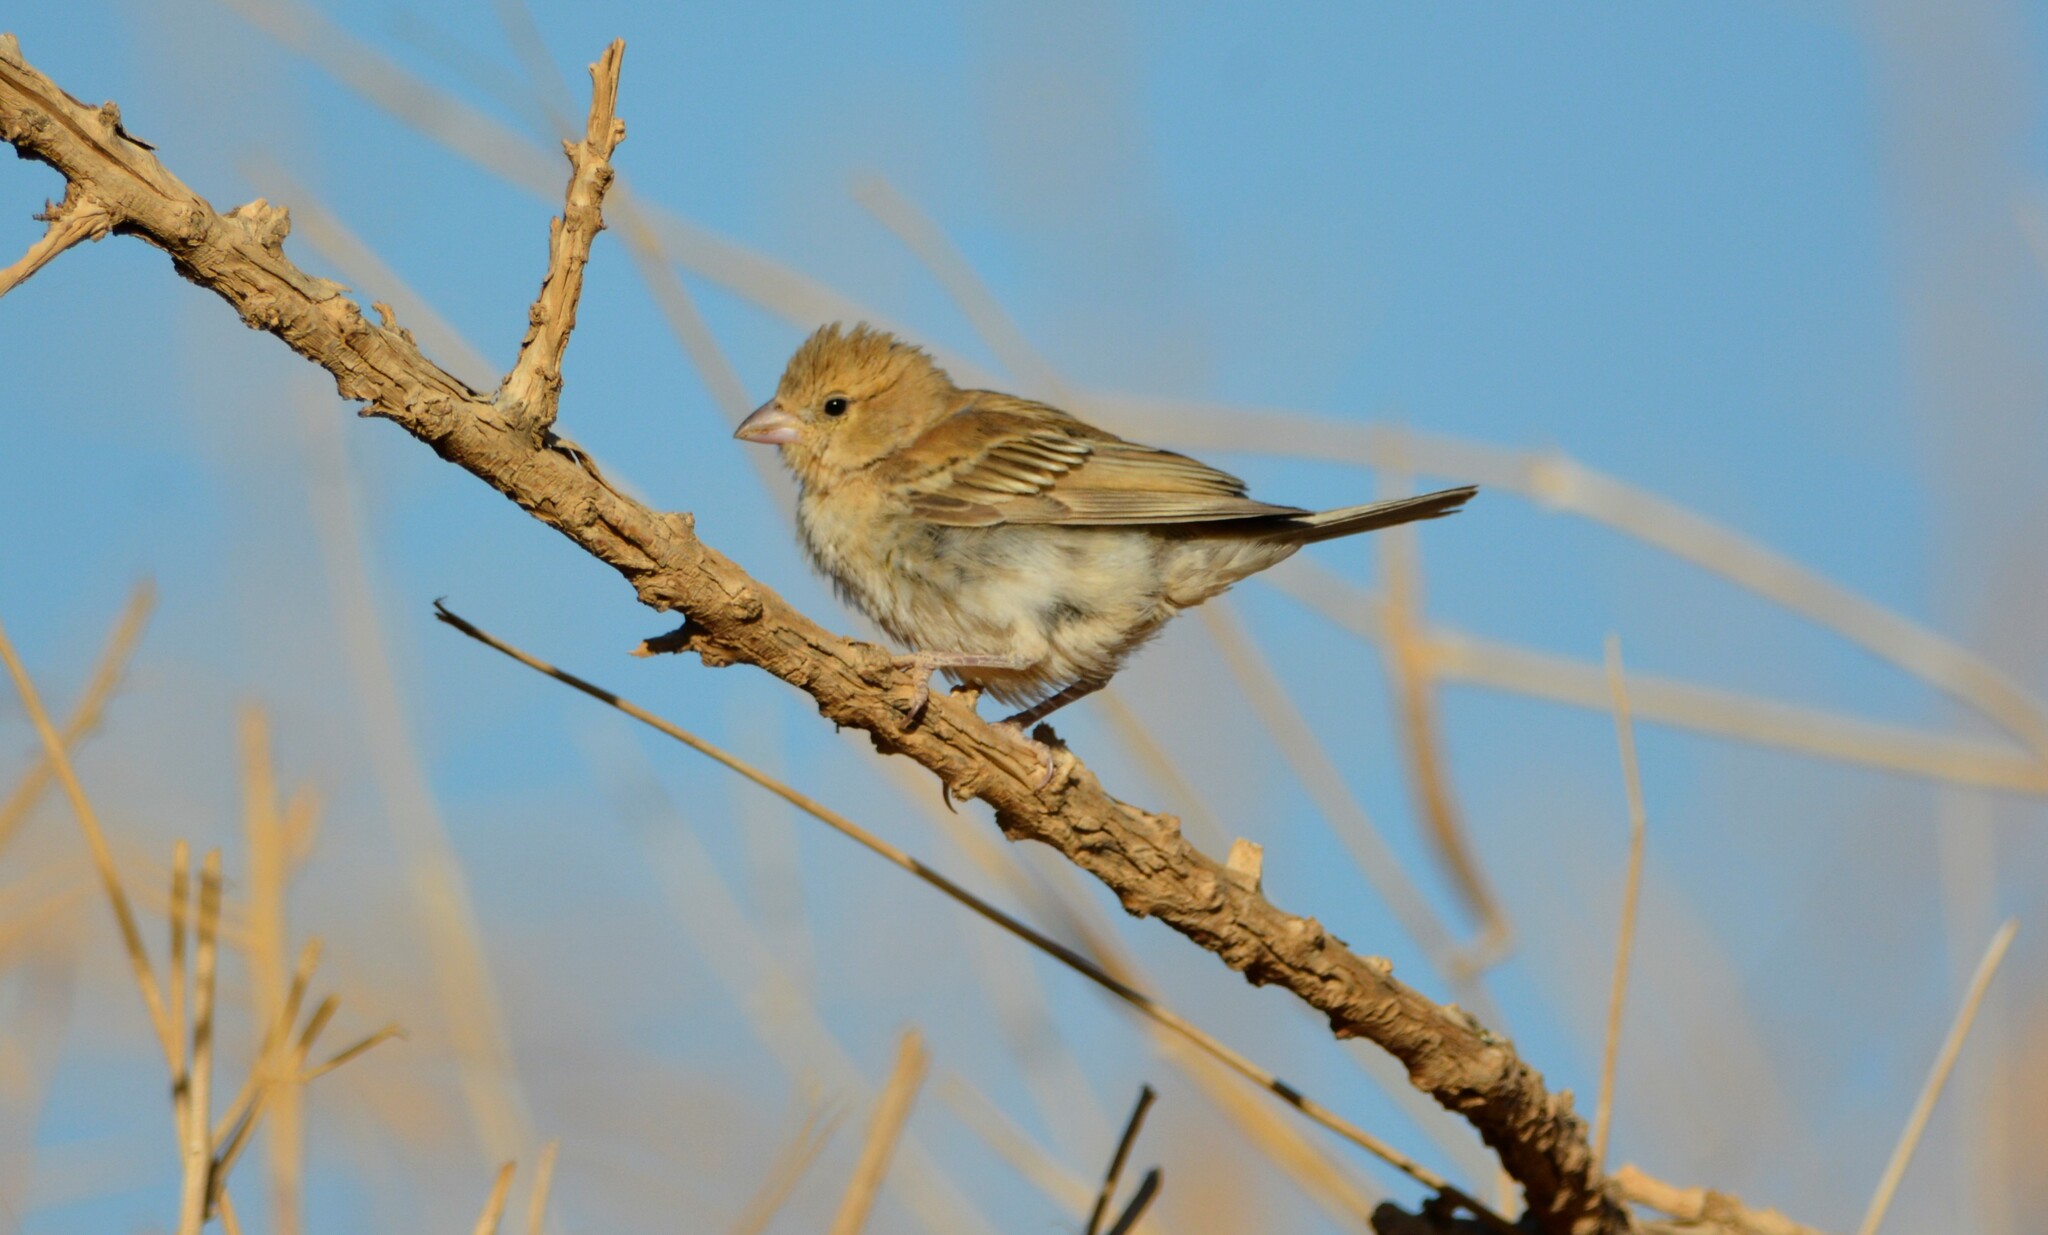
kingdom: Animalia
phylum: Chordata
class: Aves
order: Passeriformes
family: Passeridae
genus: Passer
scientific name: Passer luteus
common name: Sudan golden sparrow
